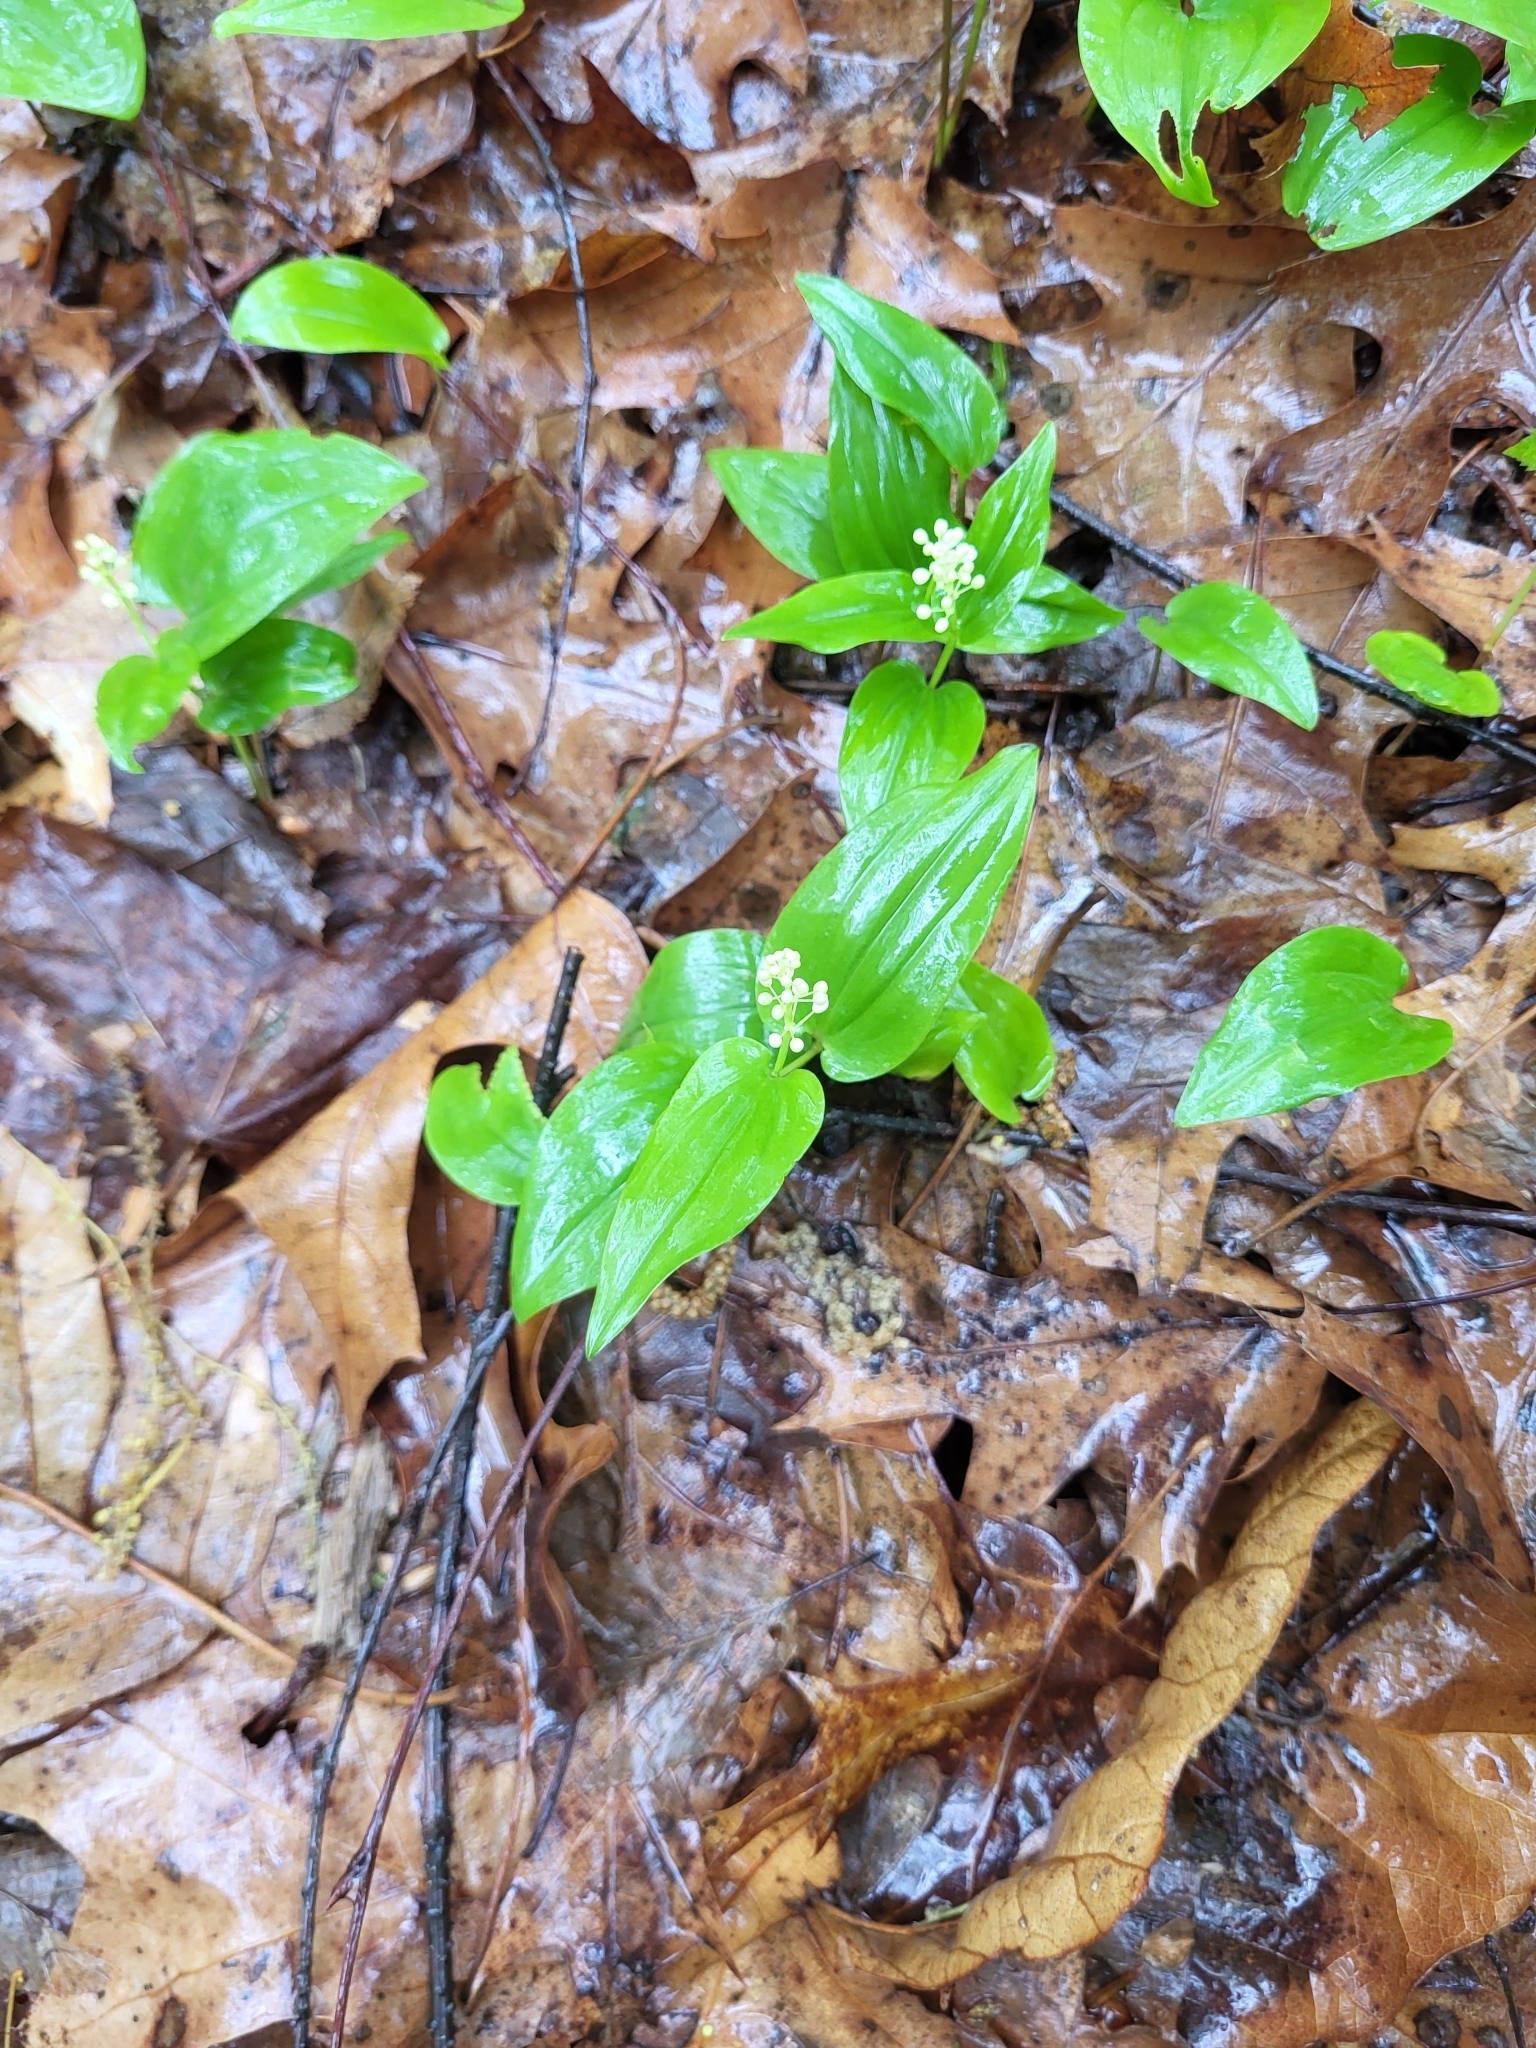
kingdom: Plantae
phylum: Tracheophyta
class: Liliopsida
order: Asparagales
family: Asparagaceae
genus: Maianthemum
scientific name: Maianthemum canadense
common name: False lily-of-the-valley
